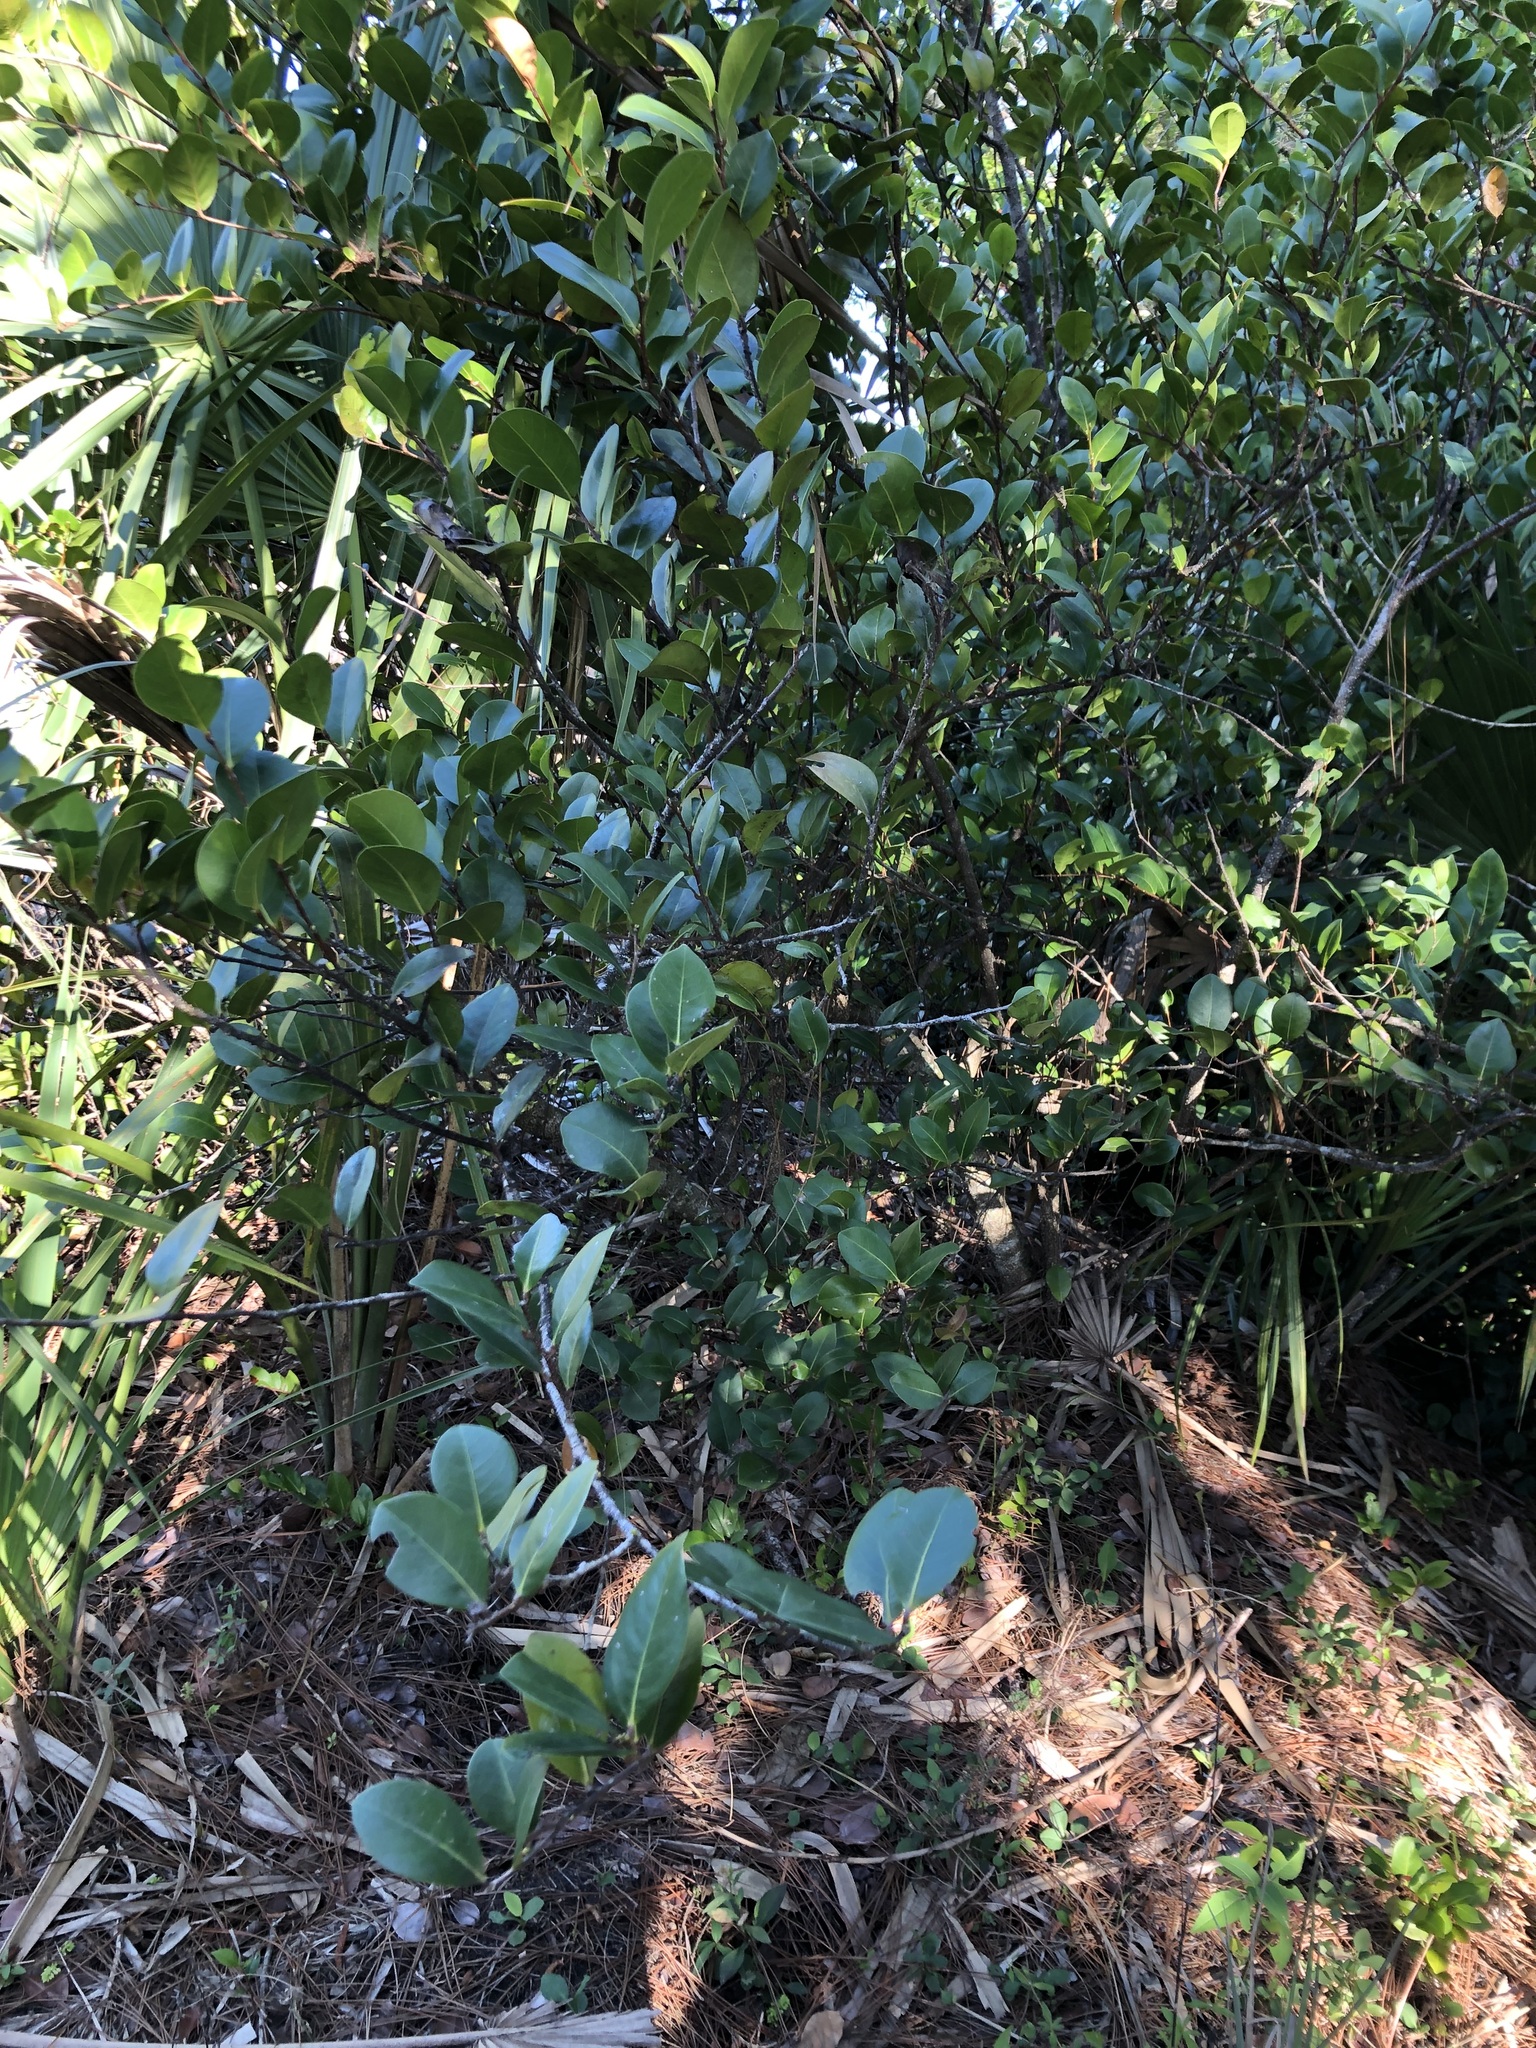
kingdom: Plantae
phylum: Tracheophyta
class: Magnoliopsida
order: Malpighiales
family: Chrysobalanaceae
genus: Chrysobalanus
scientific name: Chrysobalanus icaco
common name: Coco plum
